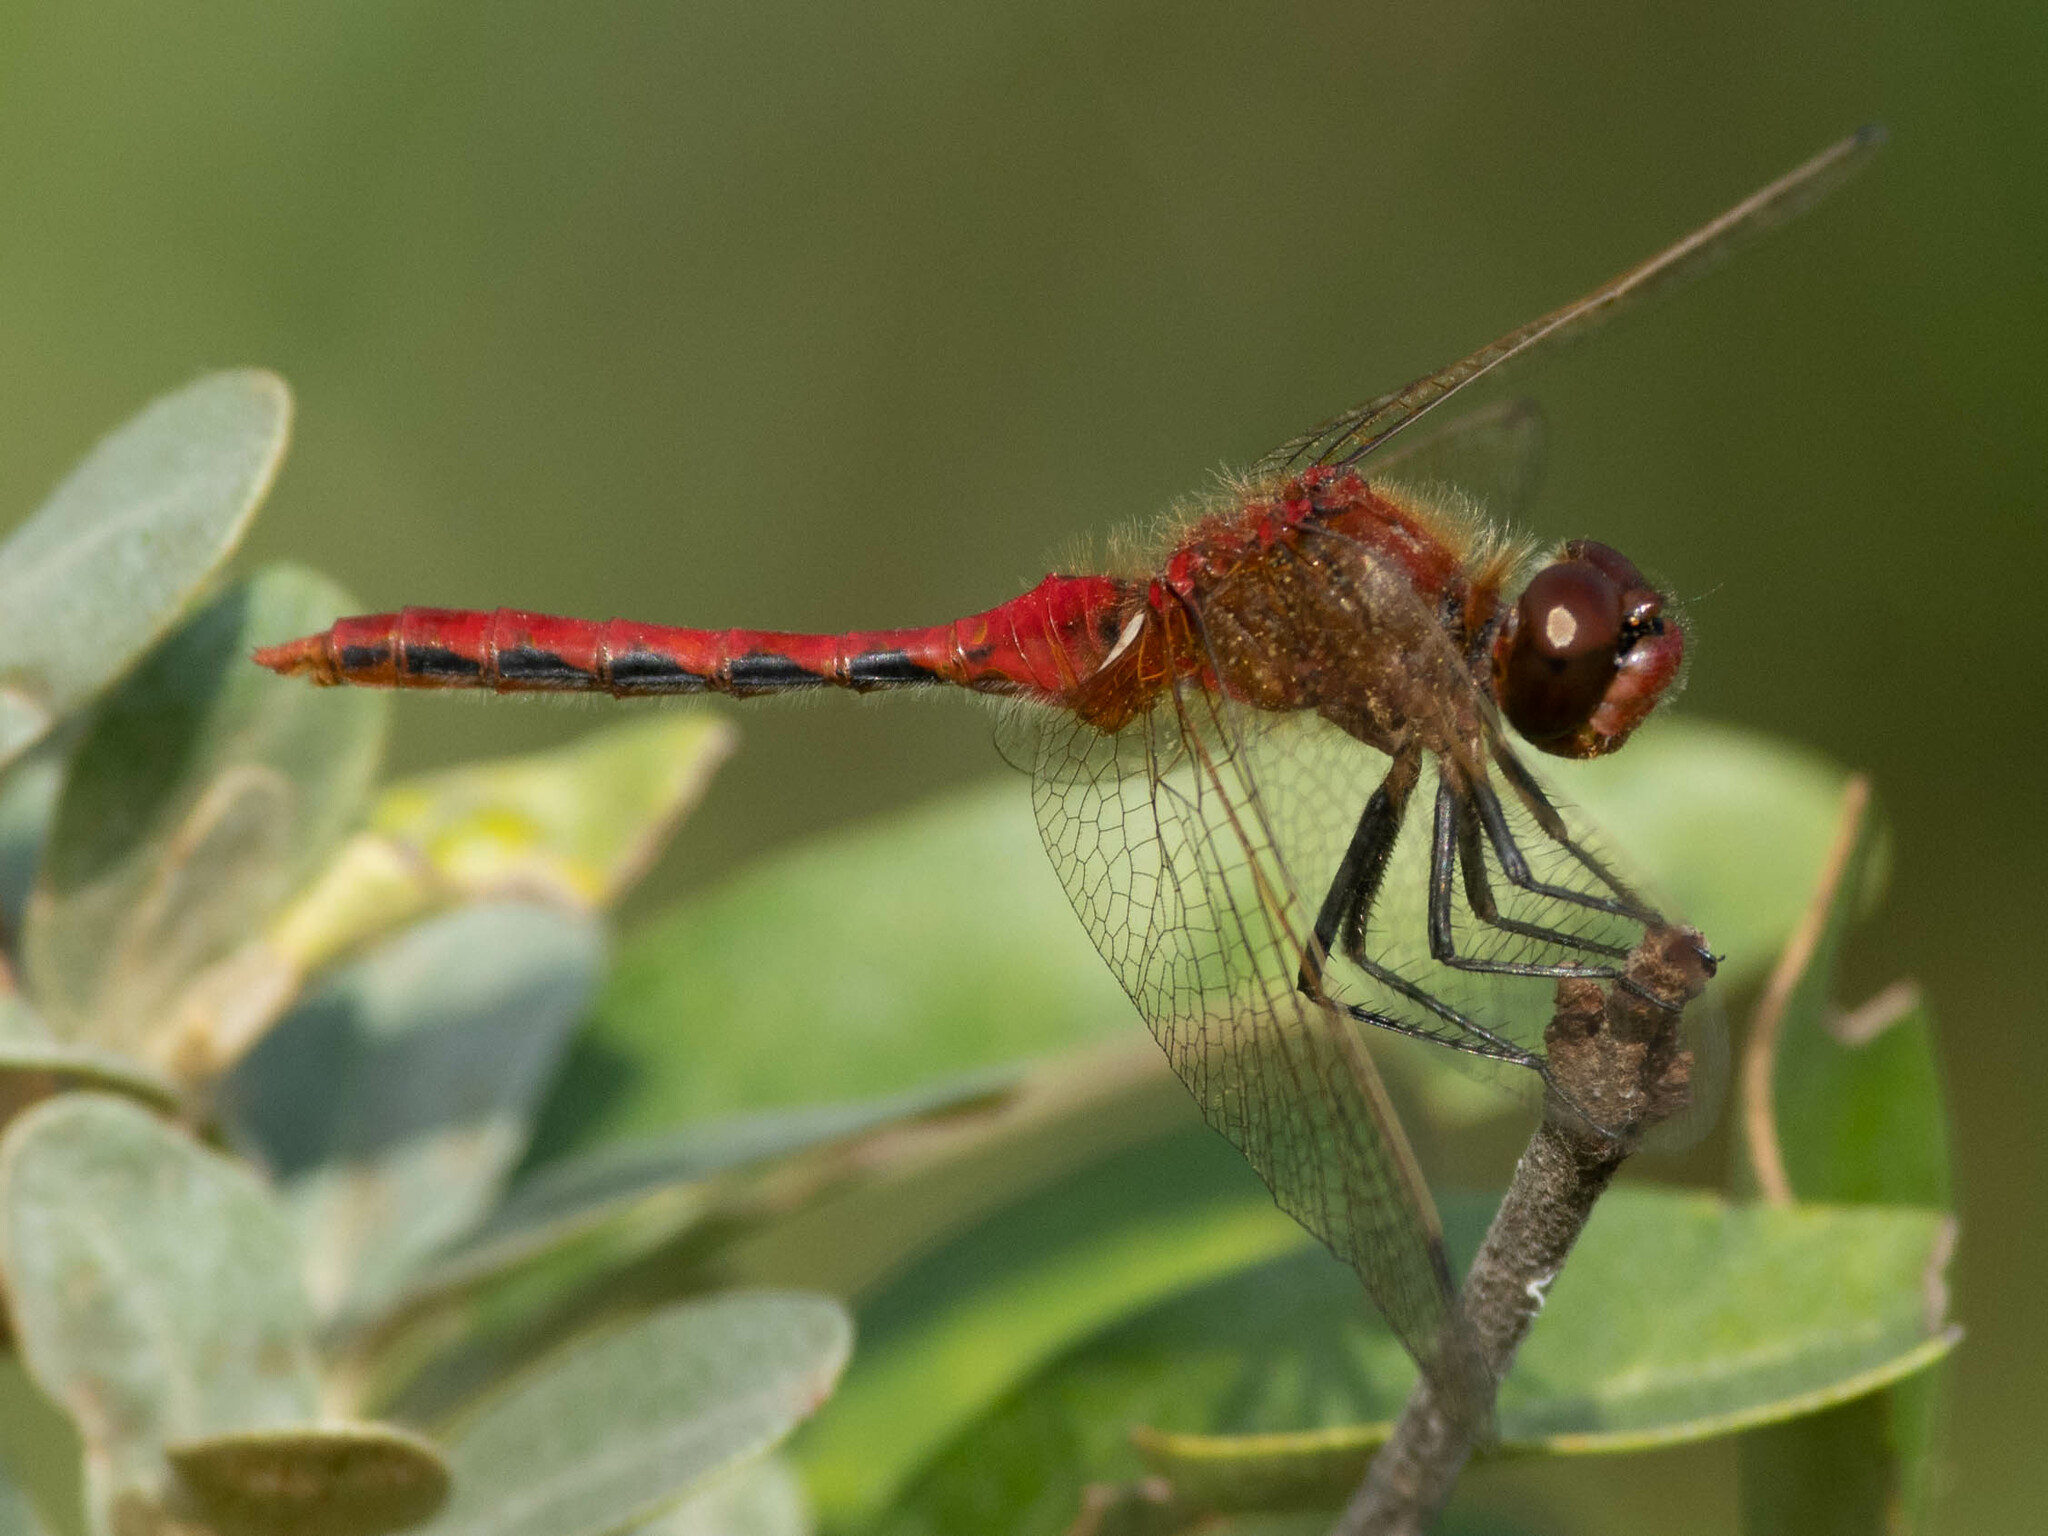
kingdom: Animalia
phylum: Arthropoda
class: Insecta
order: Odonata
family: Libellulidae
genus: Sympetrum
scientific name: Sympetrum internum
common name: Cherry-faced meadowhawk
